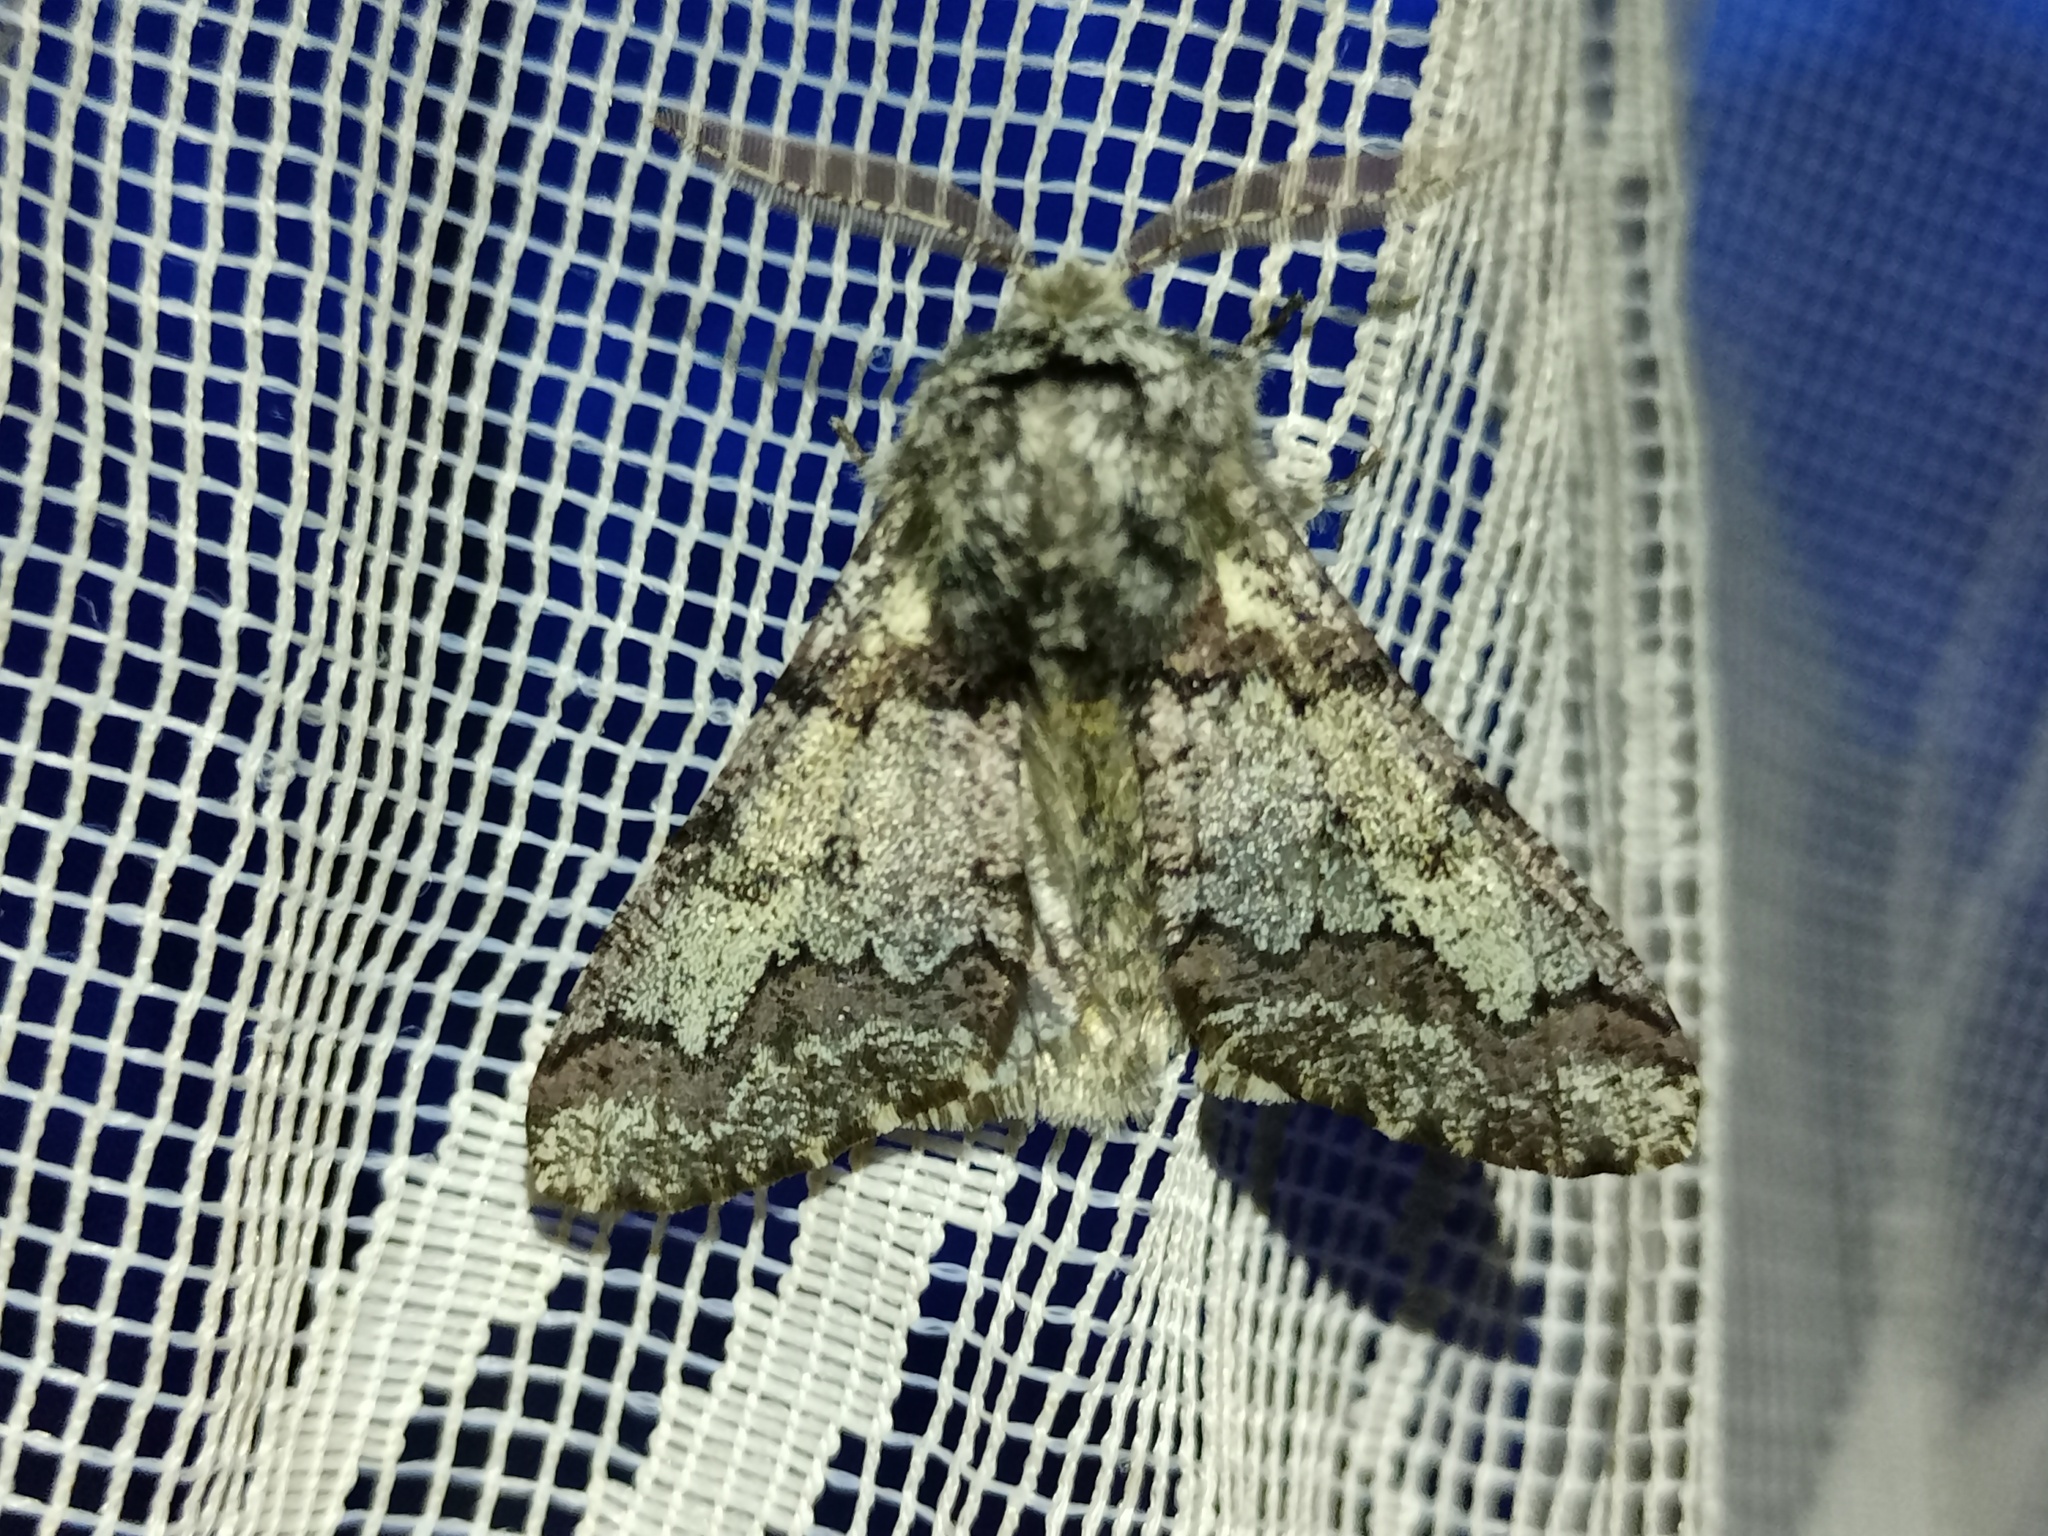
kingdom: Animalia
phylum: Arthropoda
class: Insecta
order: Lepidoptera
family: Geometridae
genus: Biston
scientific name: Biston strataria
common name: Oak beauty
